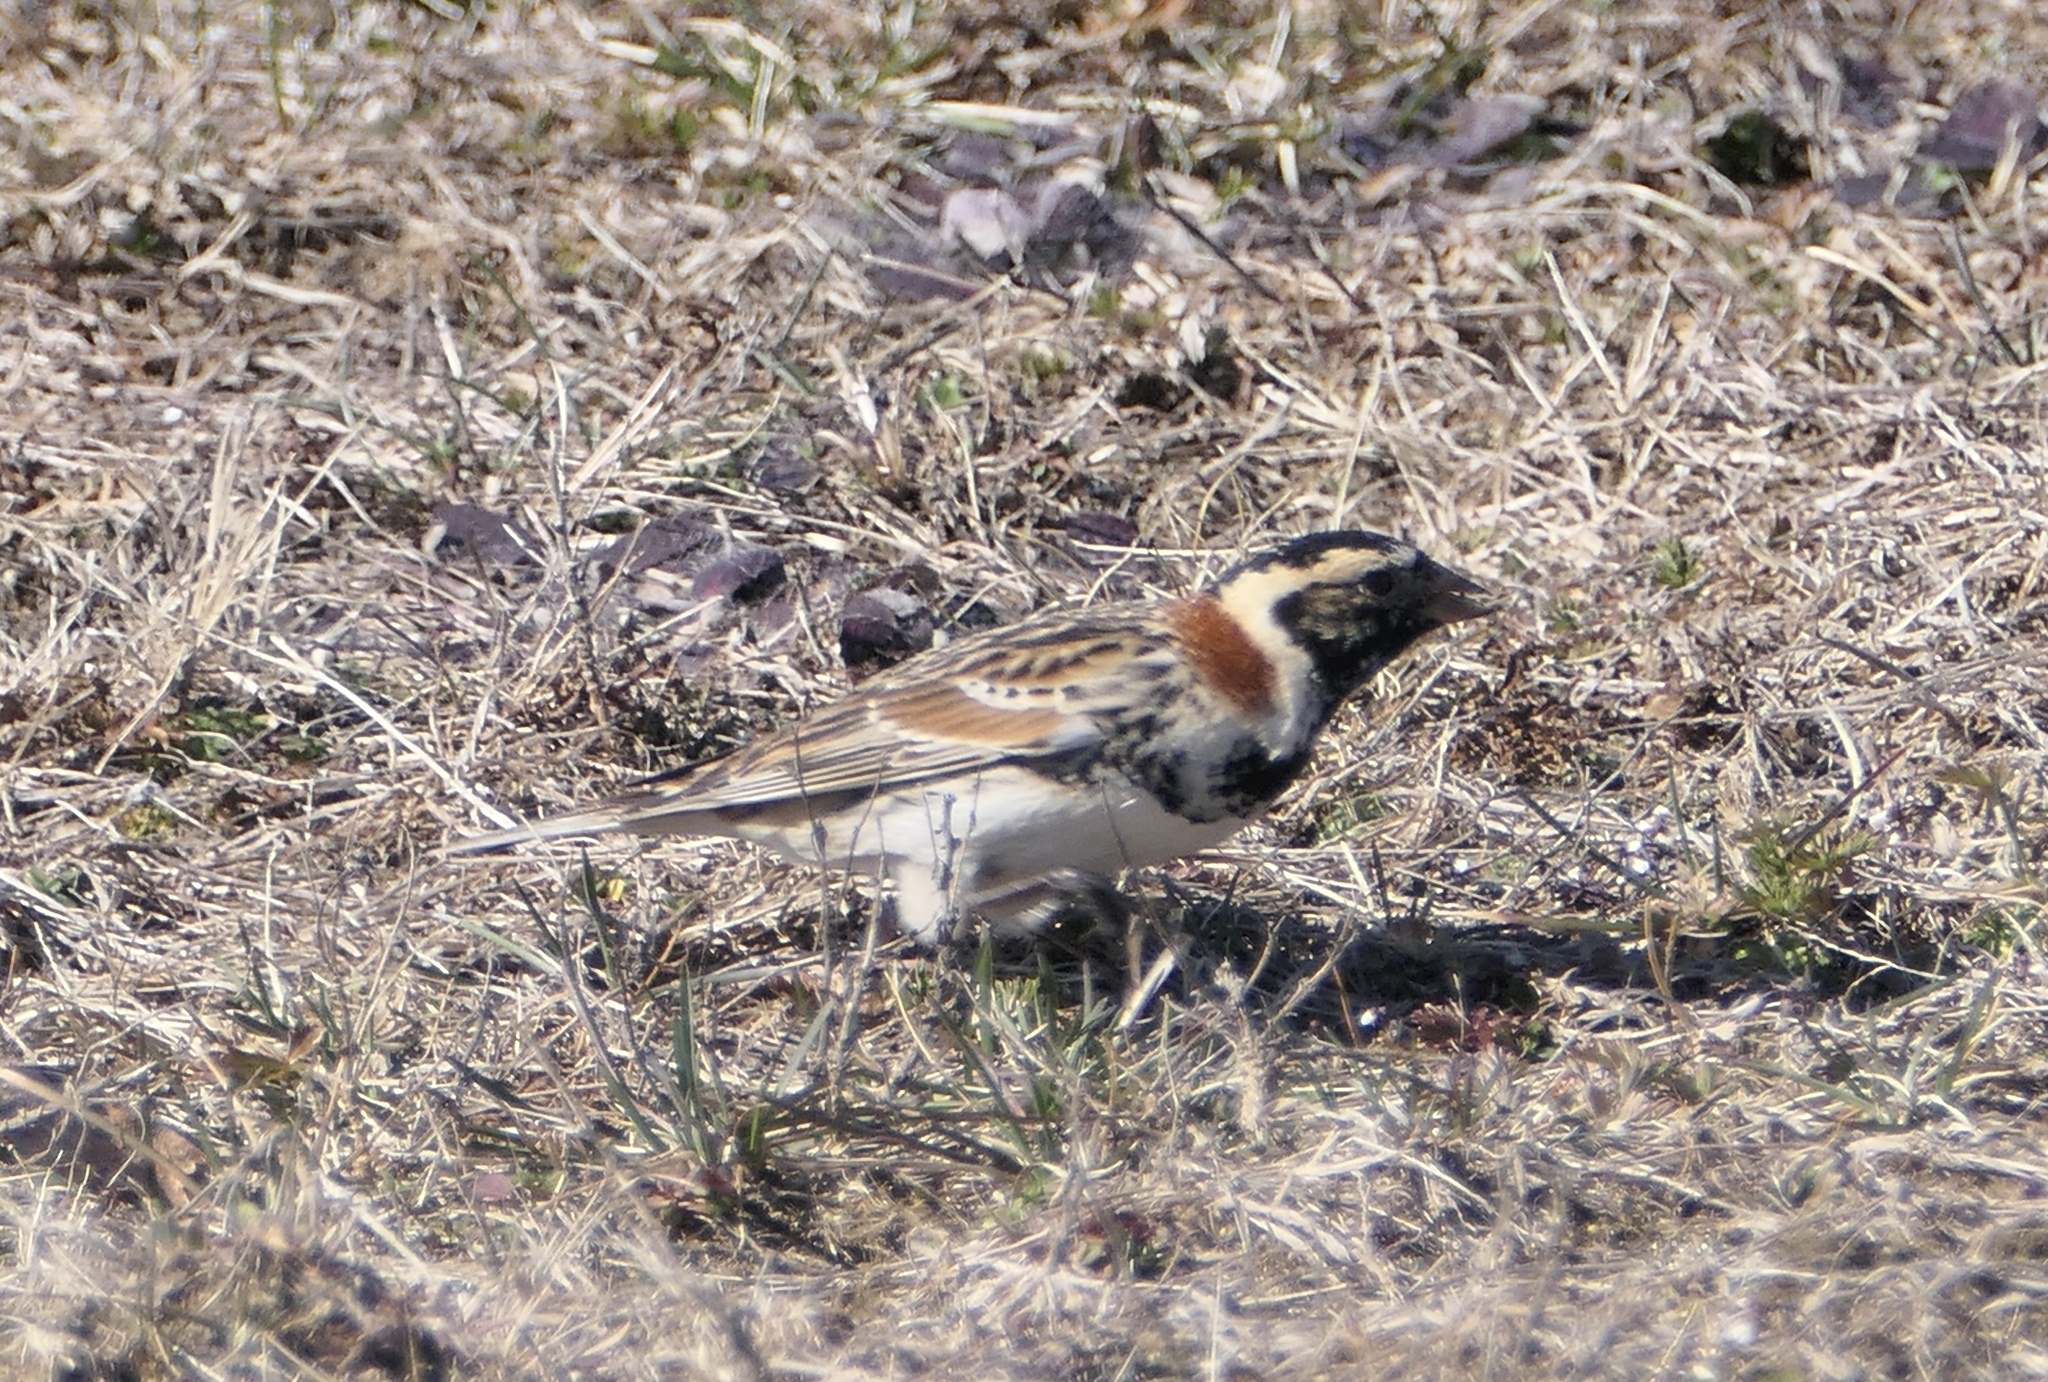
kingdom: Animalia
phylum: Chordata
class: Aves
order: Passeriformes
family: Calcariidae
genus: Calcarius
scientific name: Calcarius lapponicus
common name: Lapland longspur
